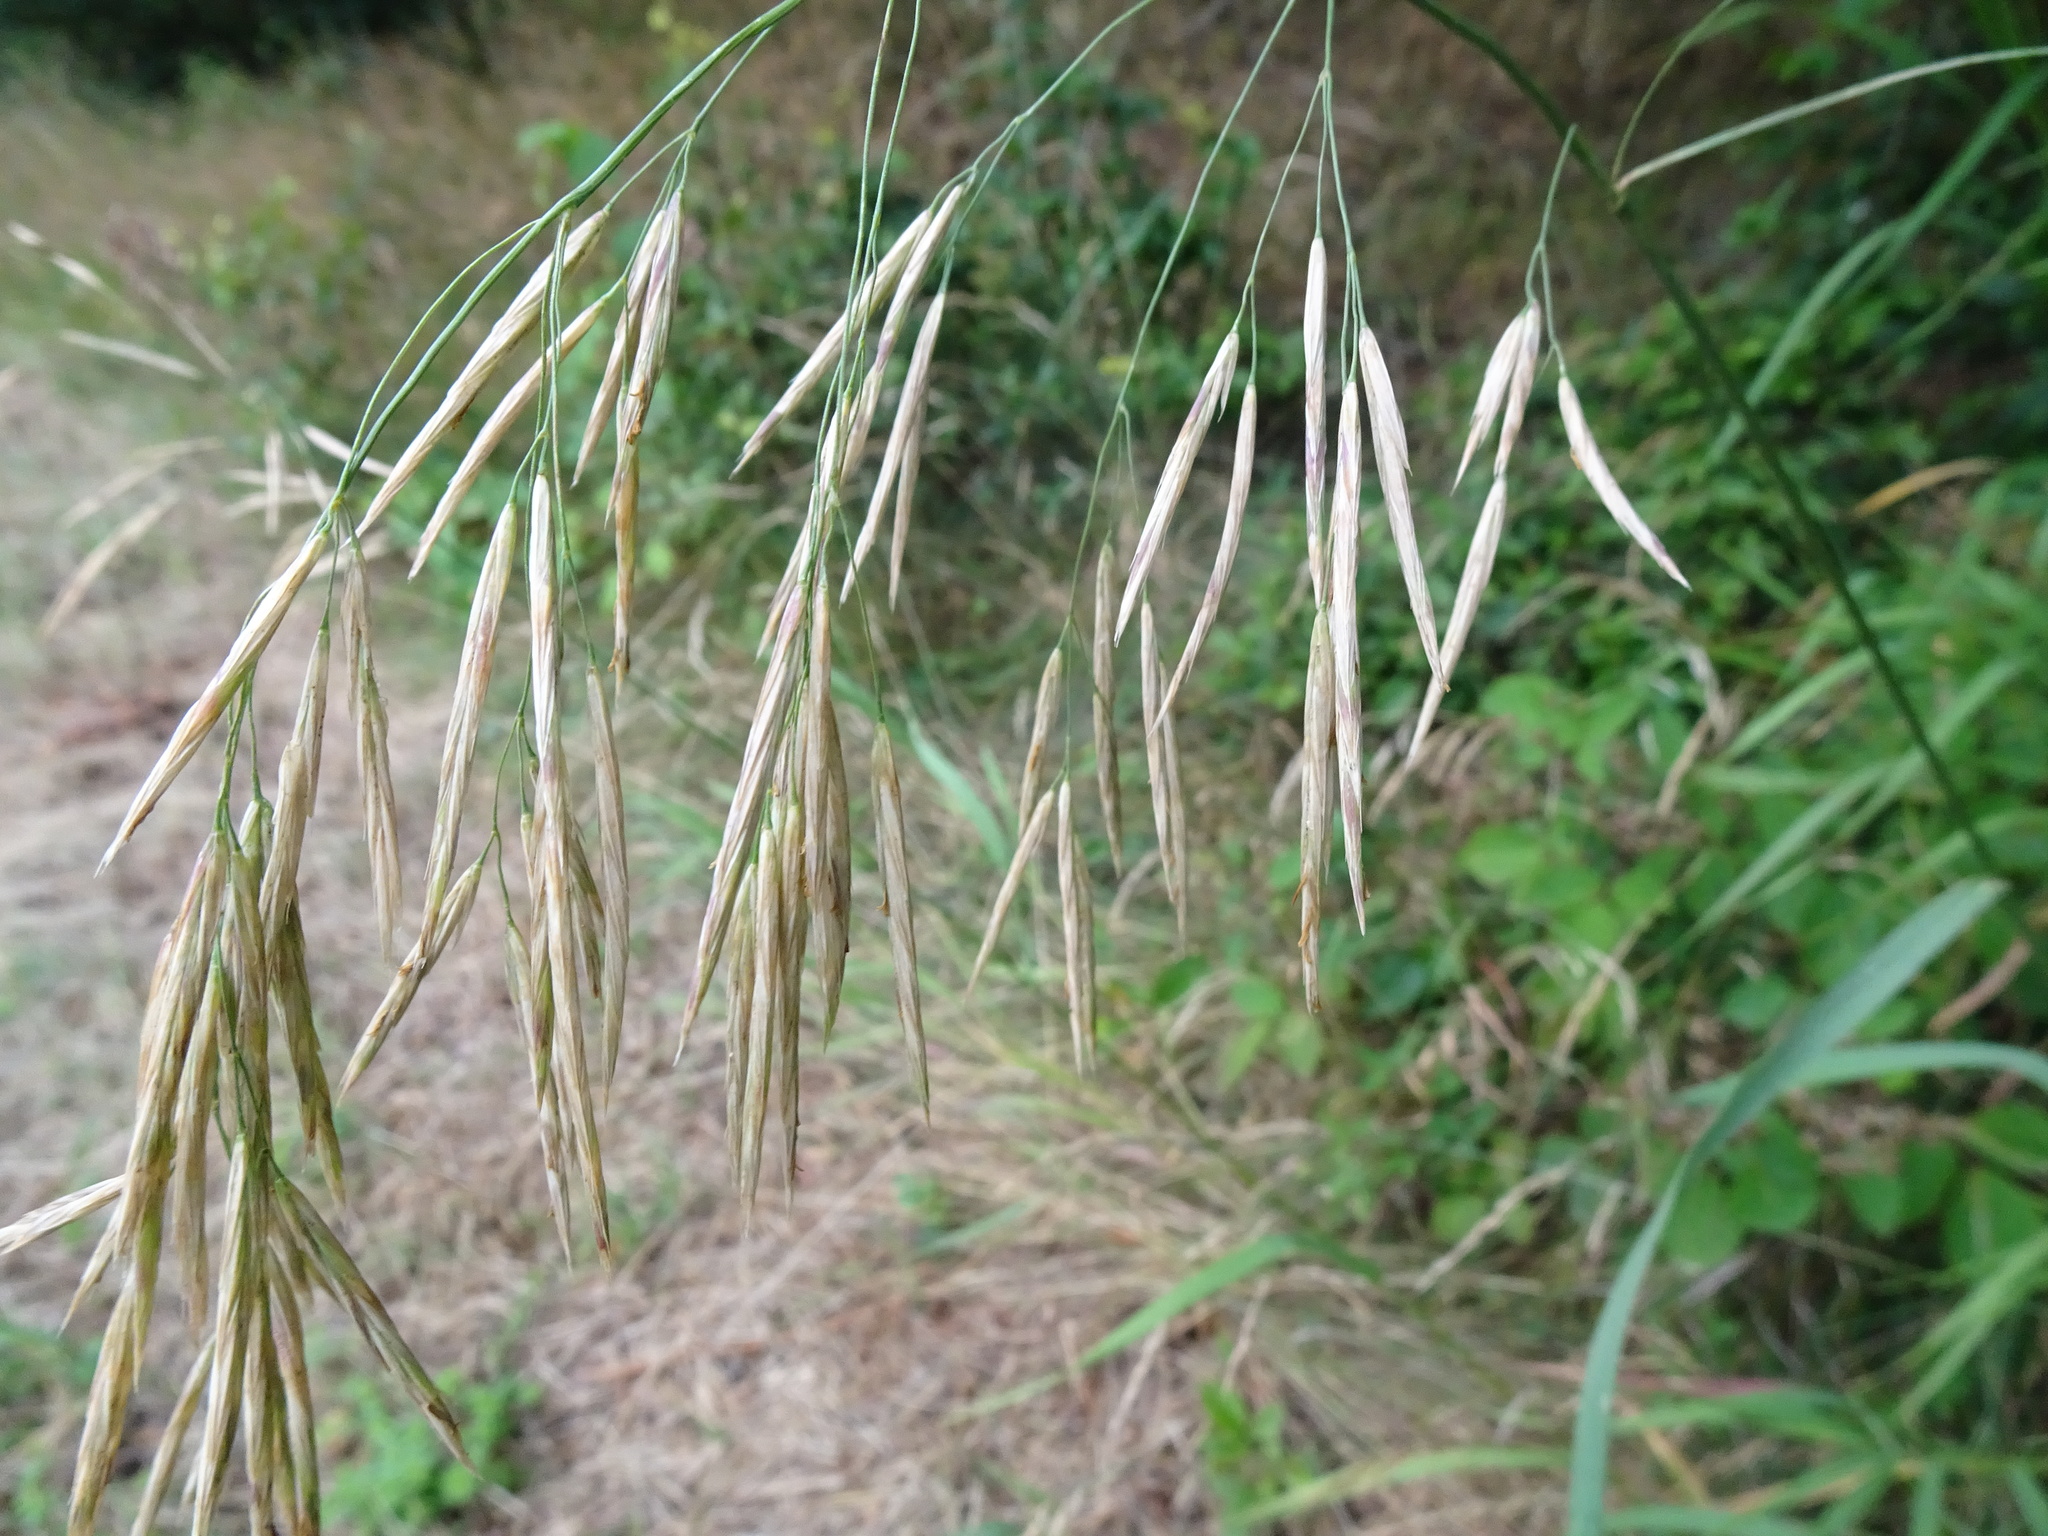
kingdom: Plantae
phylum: Tracheophyta
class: Liliopsida
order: Poales
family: Poaceae
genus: Bromus
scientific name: Bromus inermis
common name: Smooth brome
